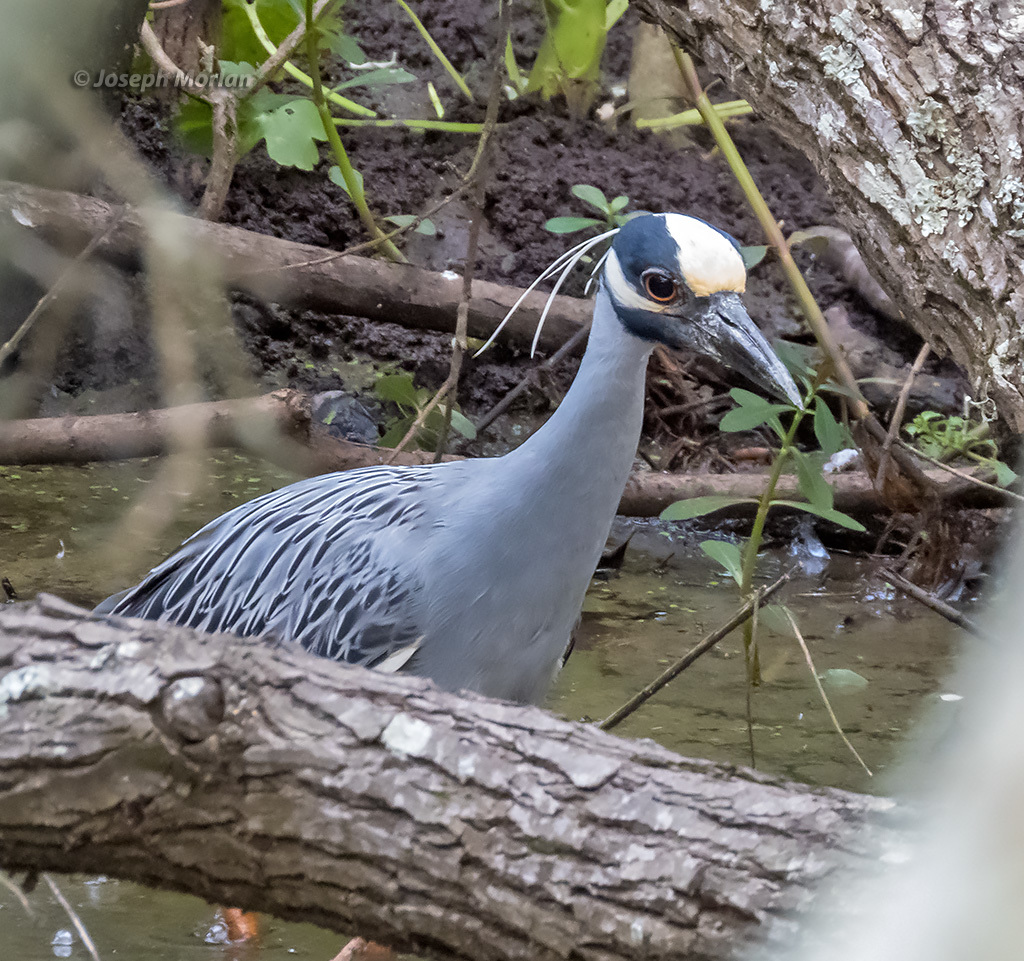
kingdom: Animalia
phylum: Chordata
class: Aves
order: Pelecaniformes
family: Ardeidae
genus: Nyctanassa
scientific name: Nyctanassa violacea
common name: Yellow-crowned night heron
